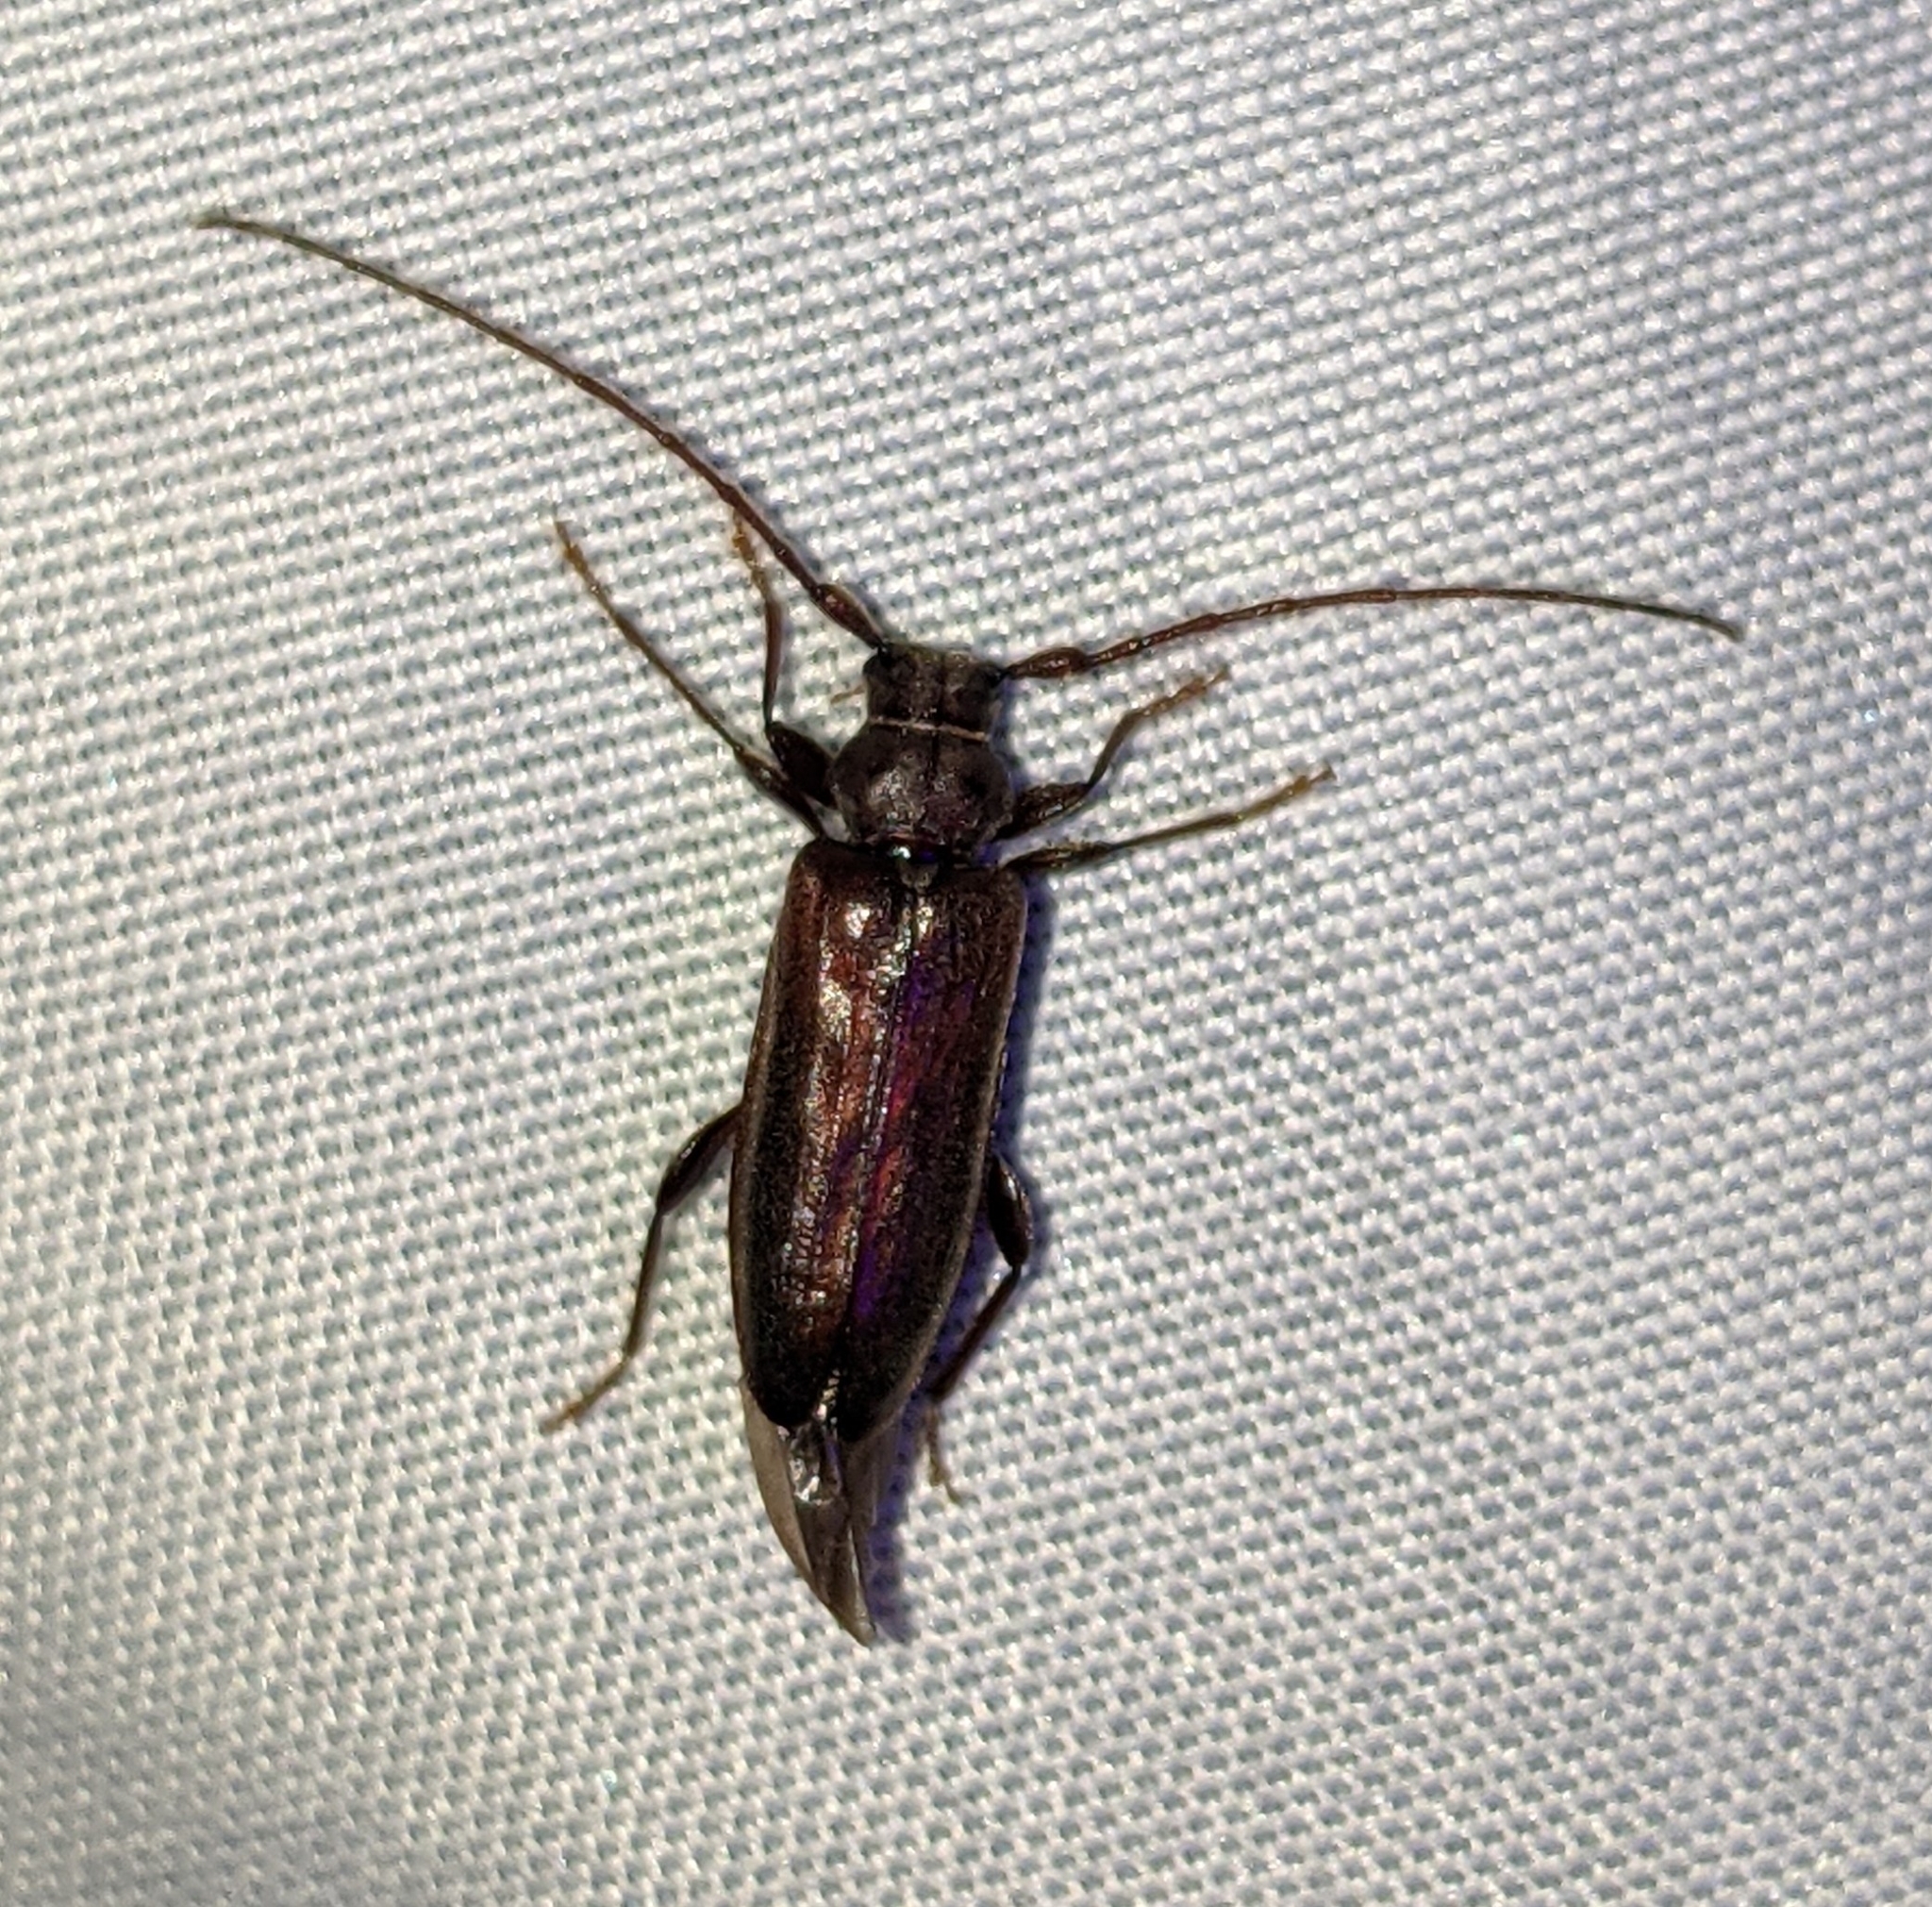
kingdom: Animalia
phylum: Arthropoda
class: Insecta
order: Coleoptera
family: Cerambycidae
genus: Opsimus
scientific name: Opsimus quadrilineatus
